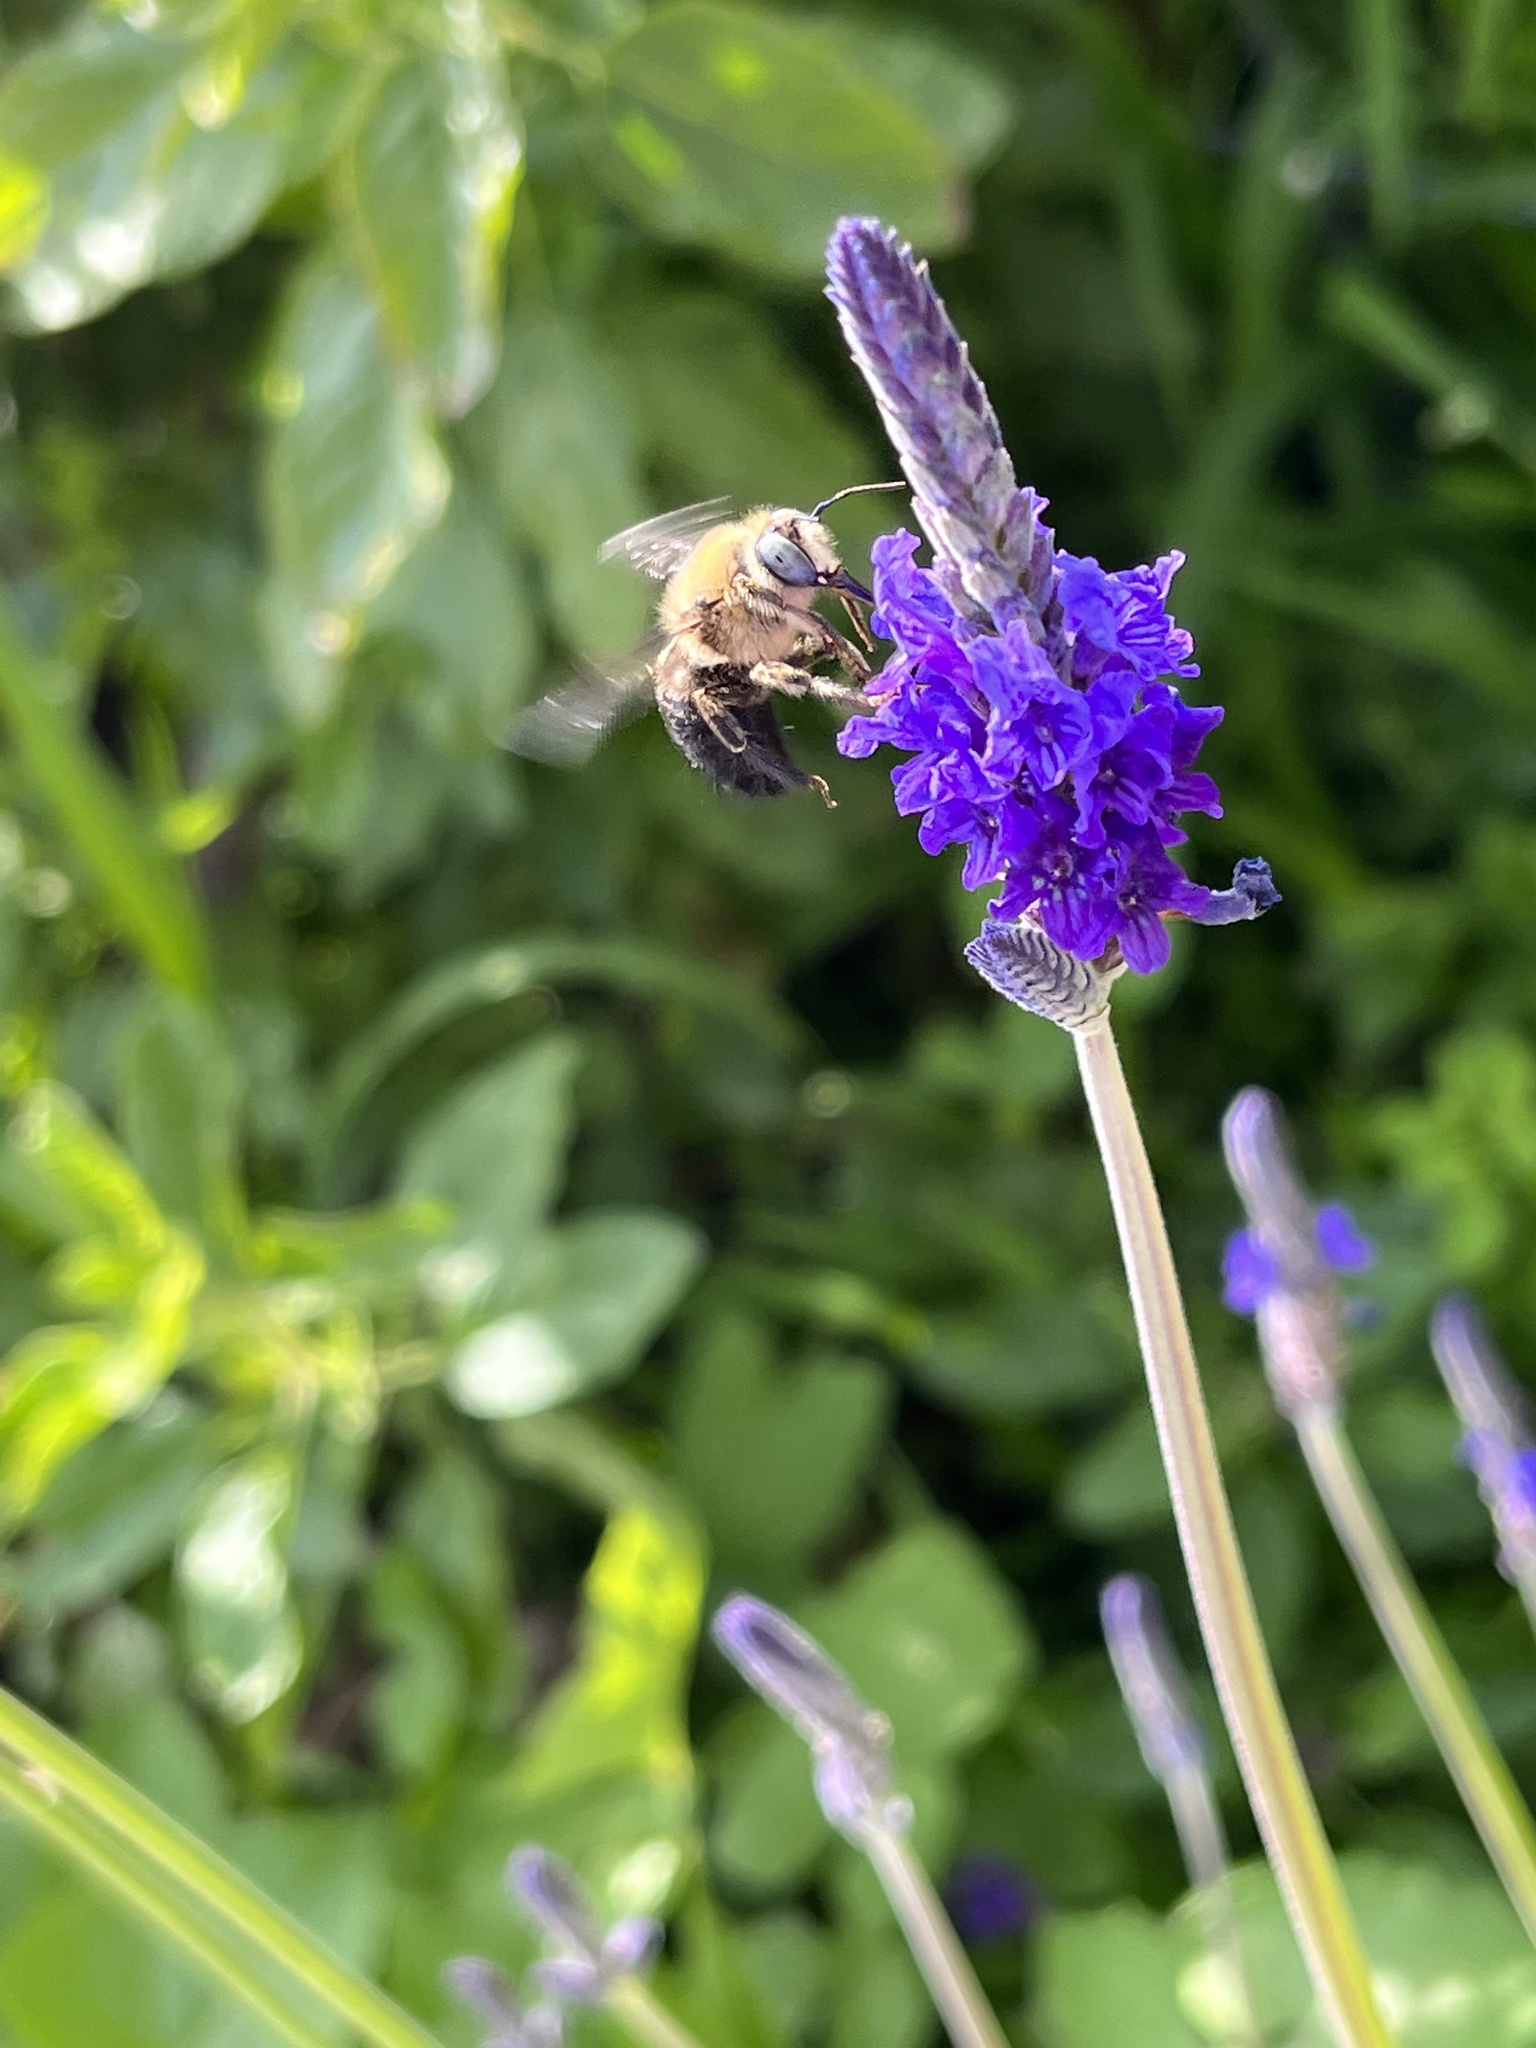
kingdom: Animalia
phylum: Arthropoda
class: Insecta
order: Hymenoptera
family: Apidae
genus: Xylocopa
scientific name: Xylocopa tabaniformis
